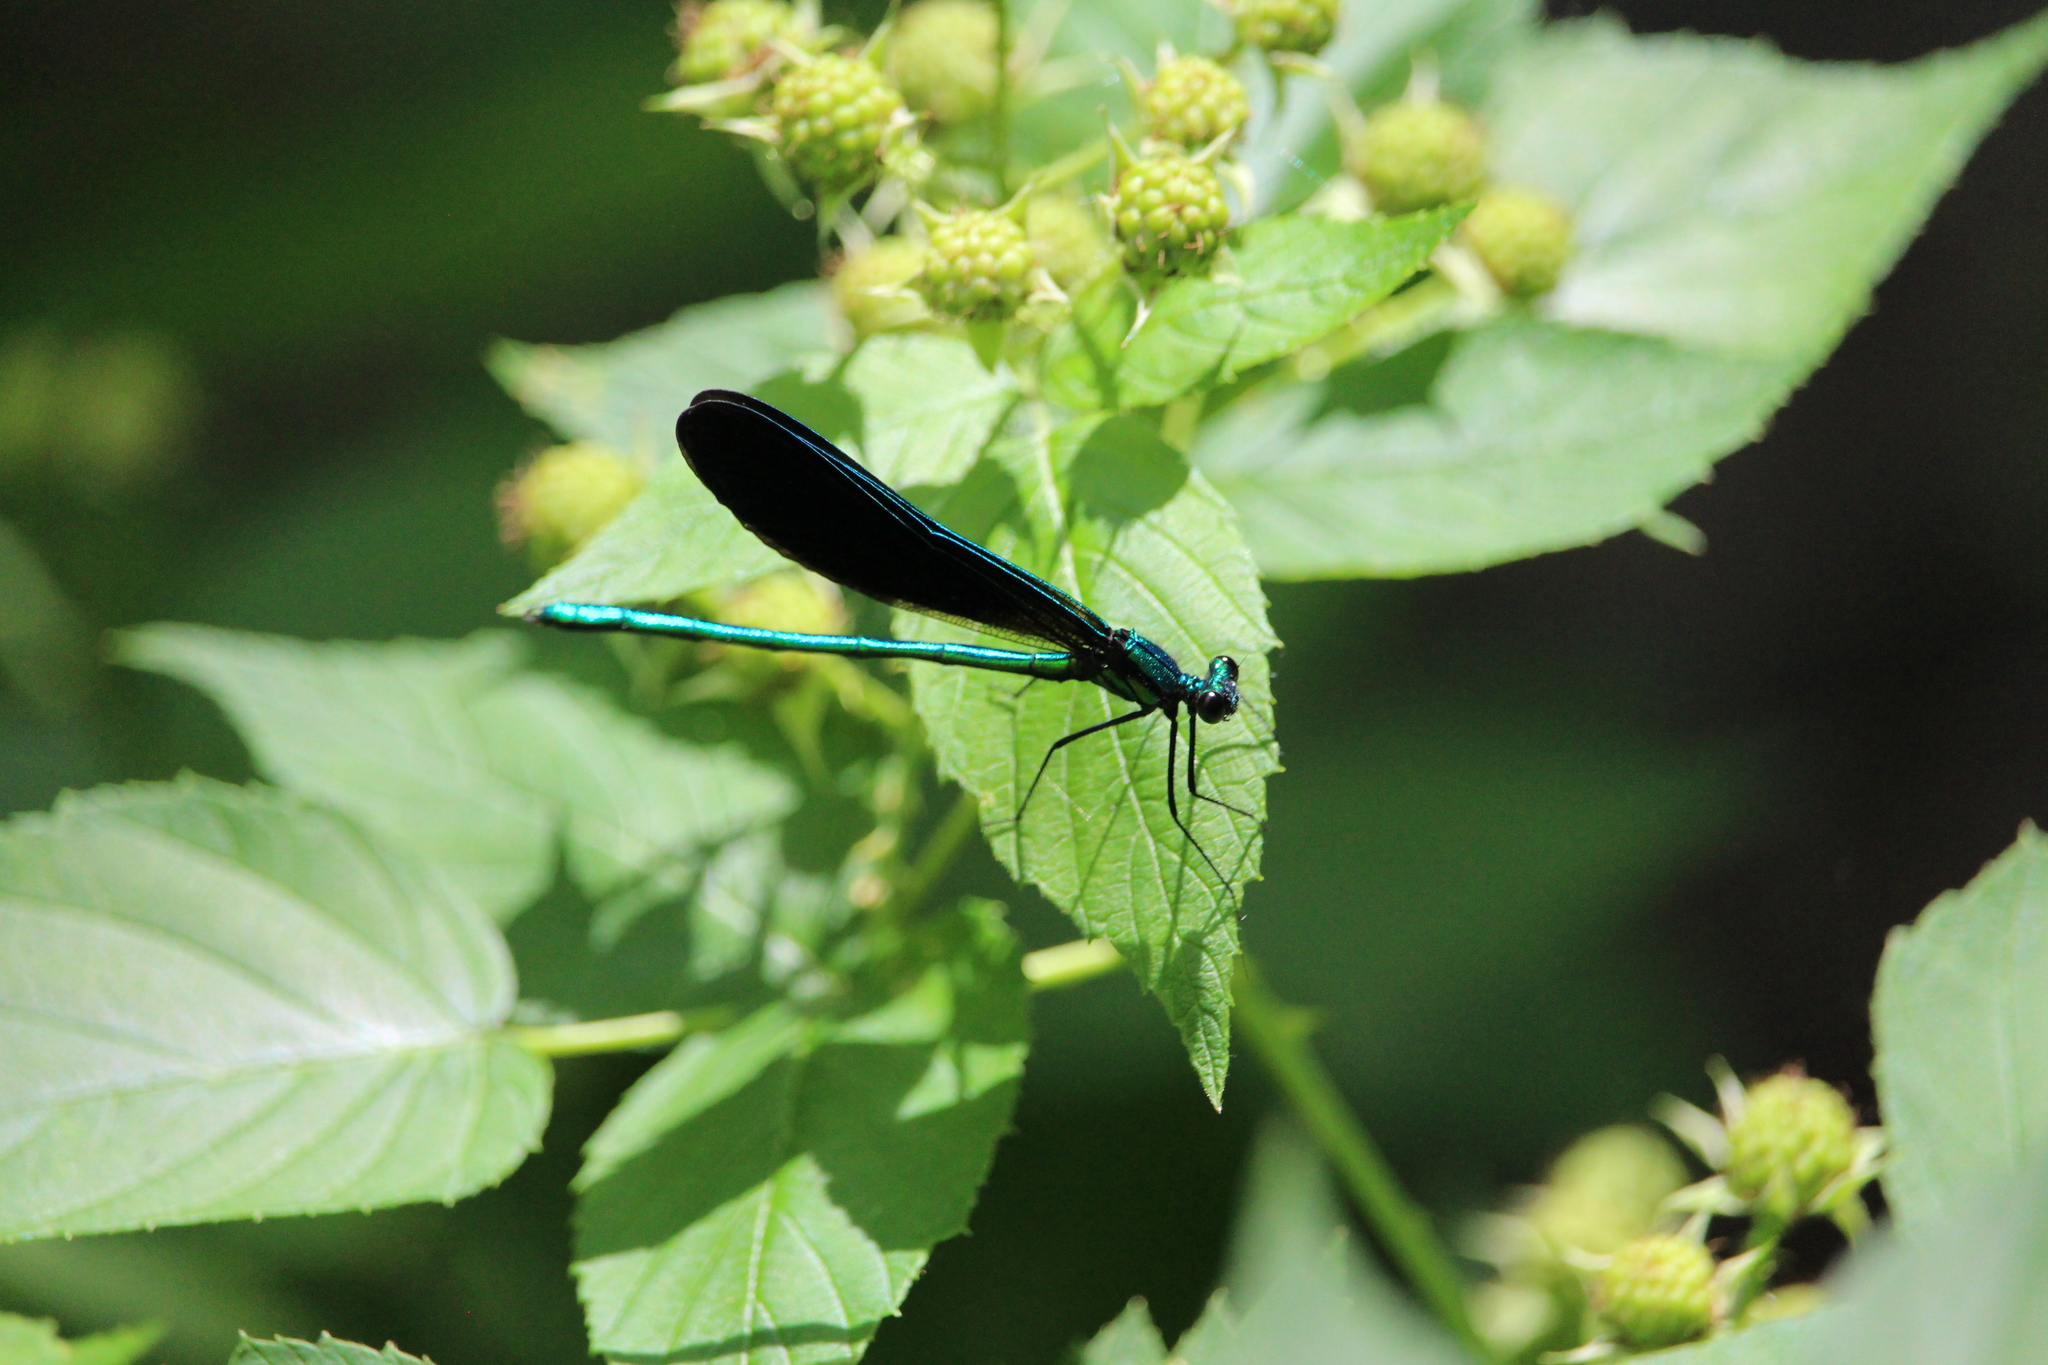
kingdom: Animalia
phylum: Arthropoda
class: Insecta
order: Odonata
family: Calopterygidae
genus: Calopteryx
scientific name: Calopteryx maculata
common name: Ebony jewelwing
